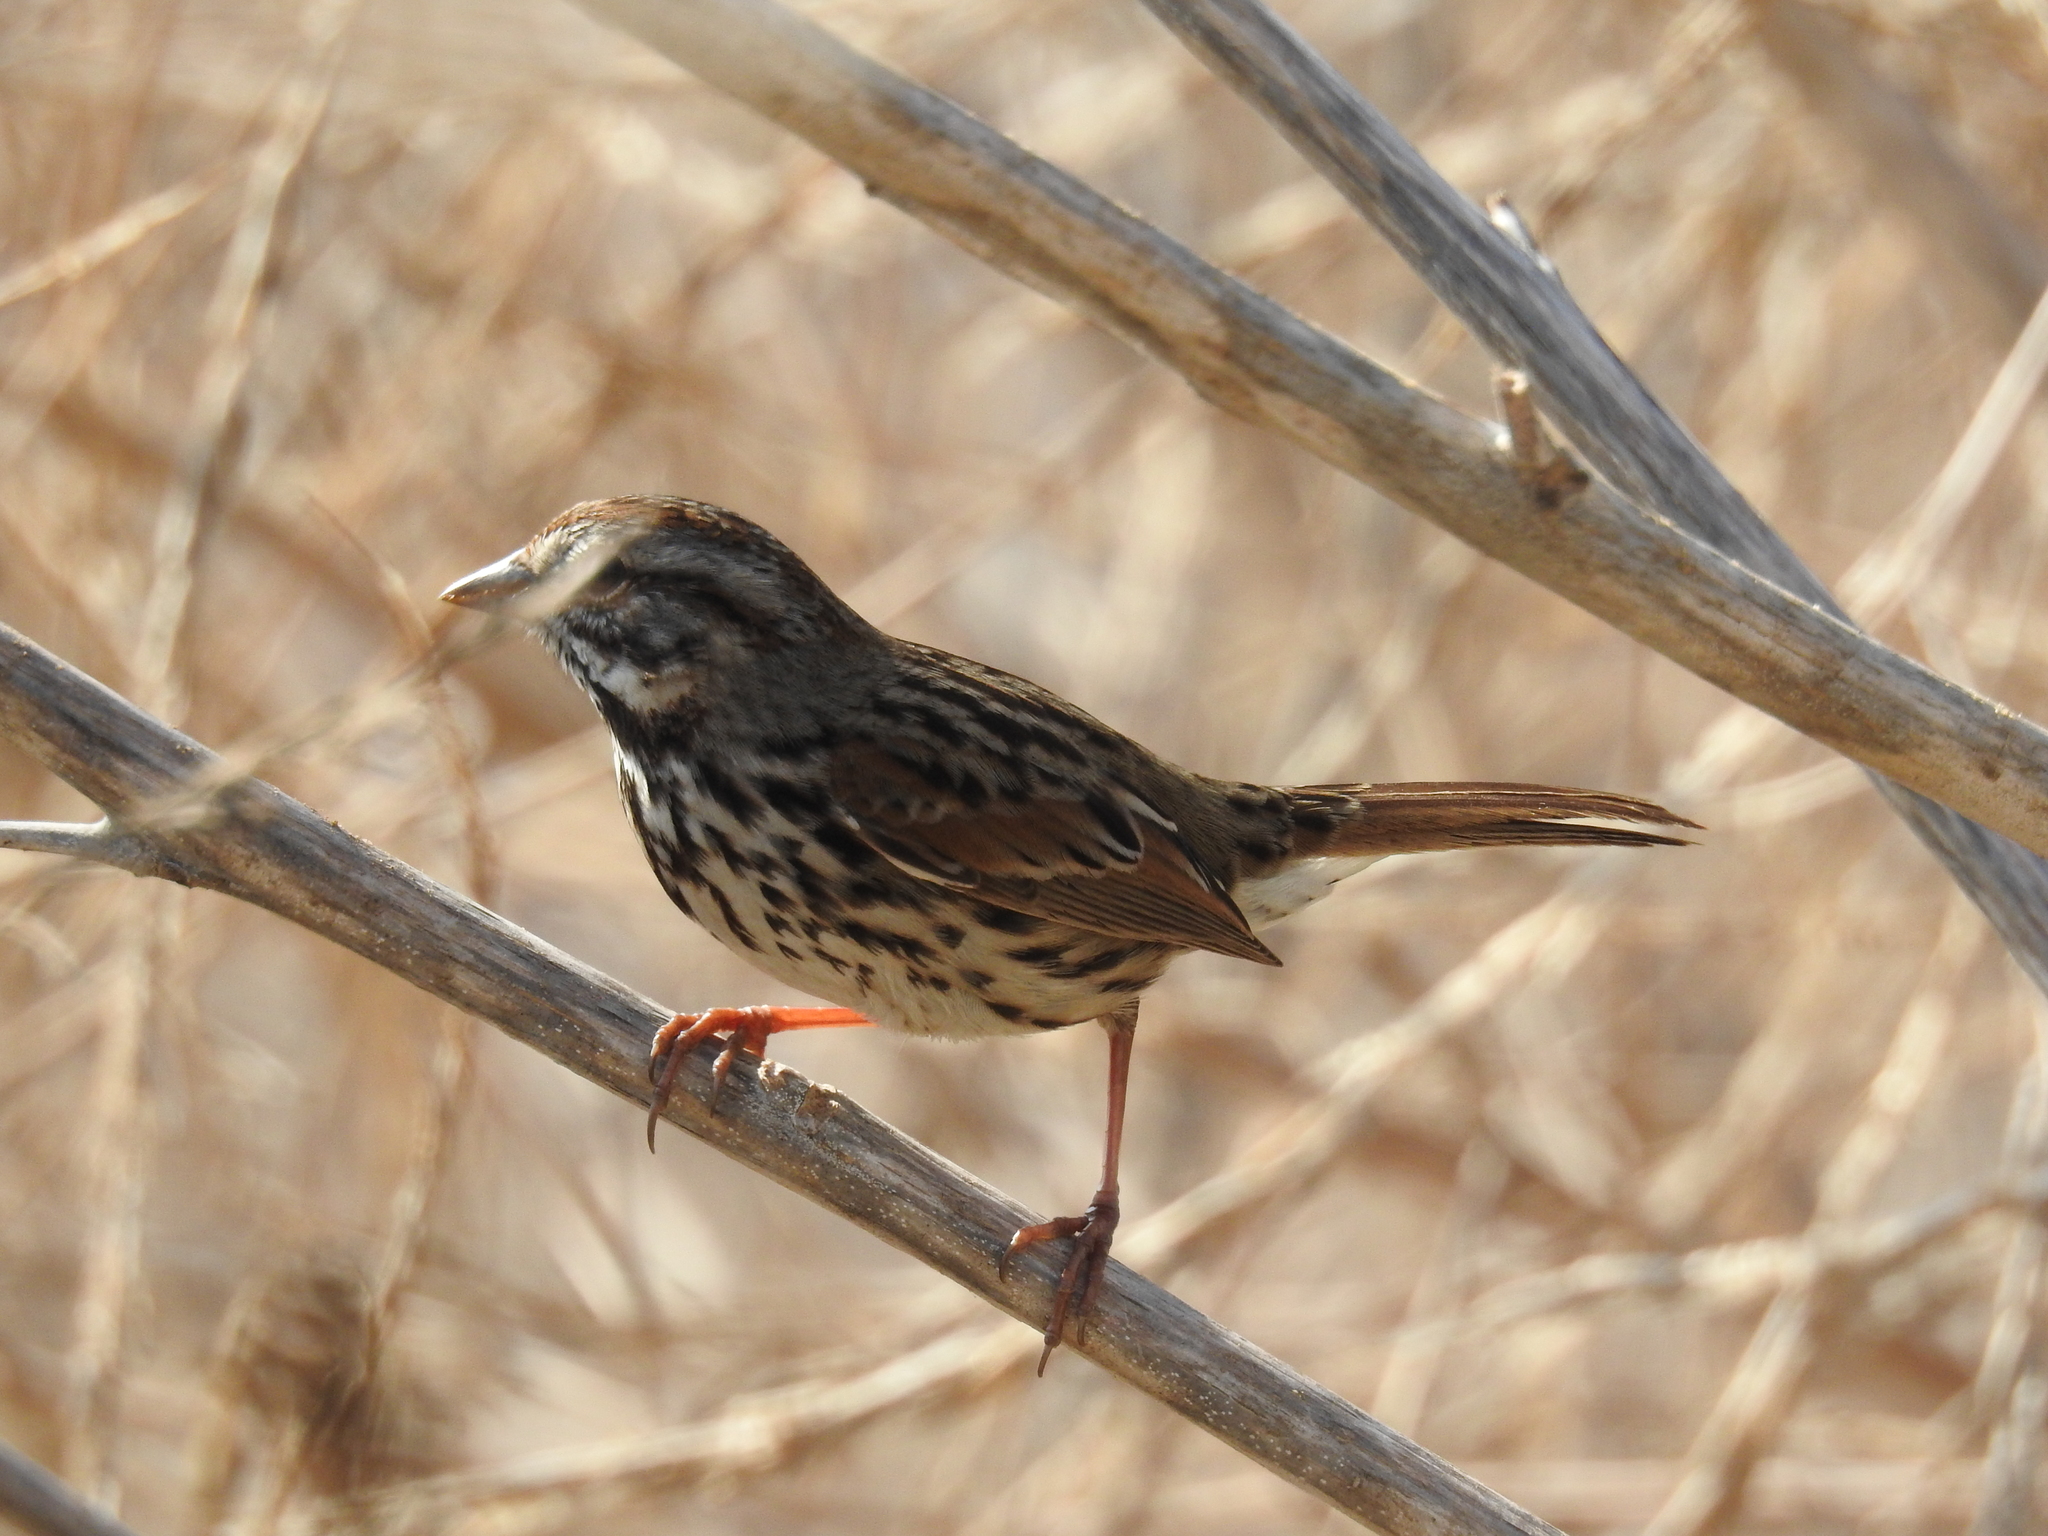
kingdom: Animalia
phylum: Chordata
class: Aves
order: Passeriformes
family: Passerellidae
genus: Melospiza
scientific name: Melospiza melodia
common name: Song sparrow
